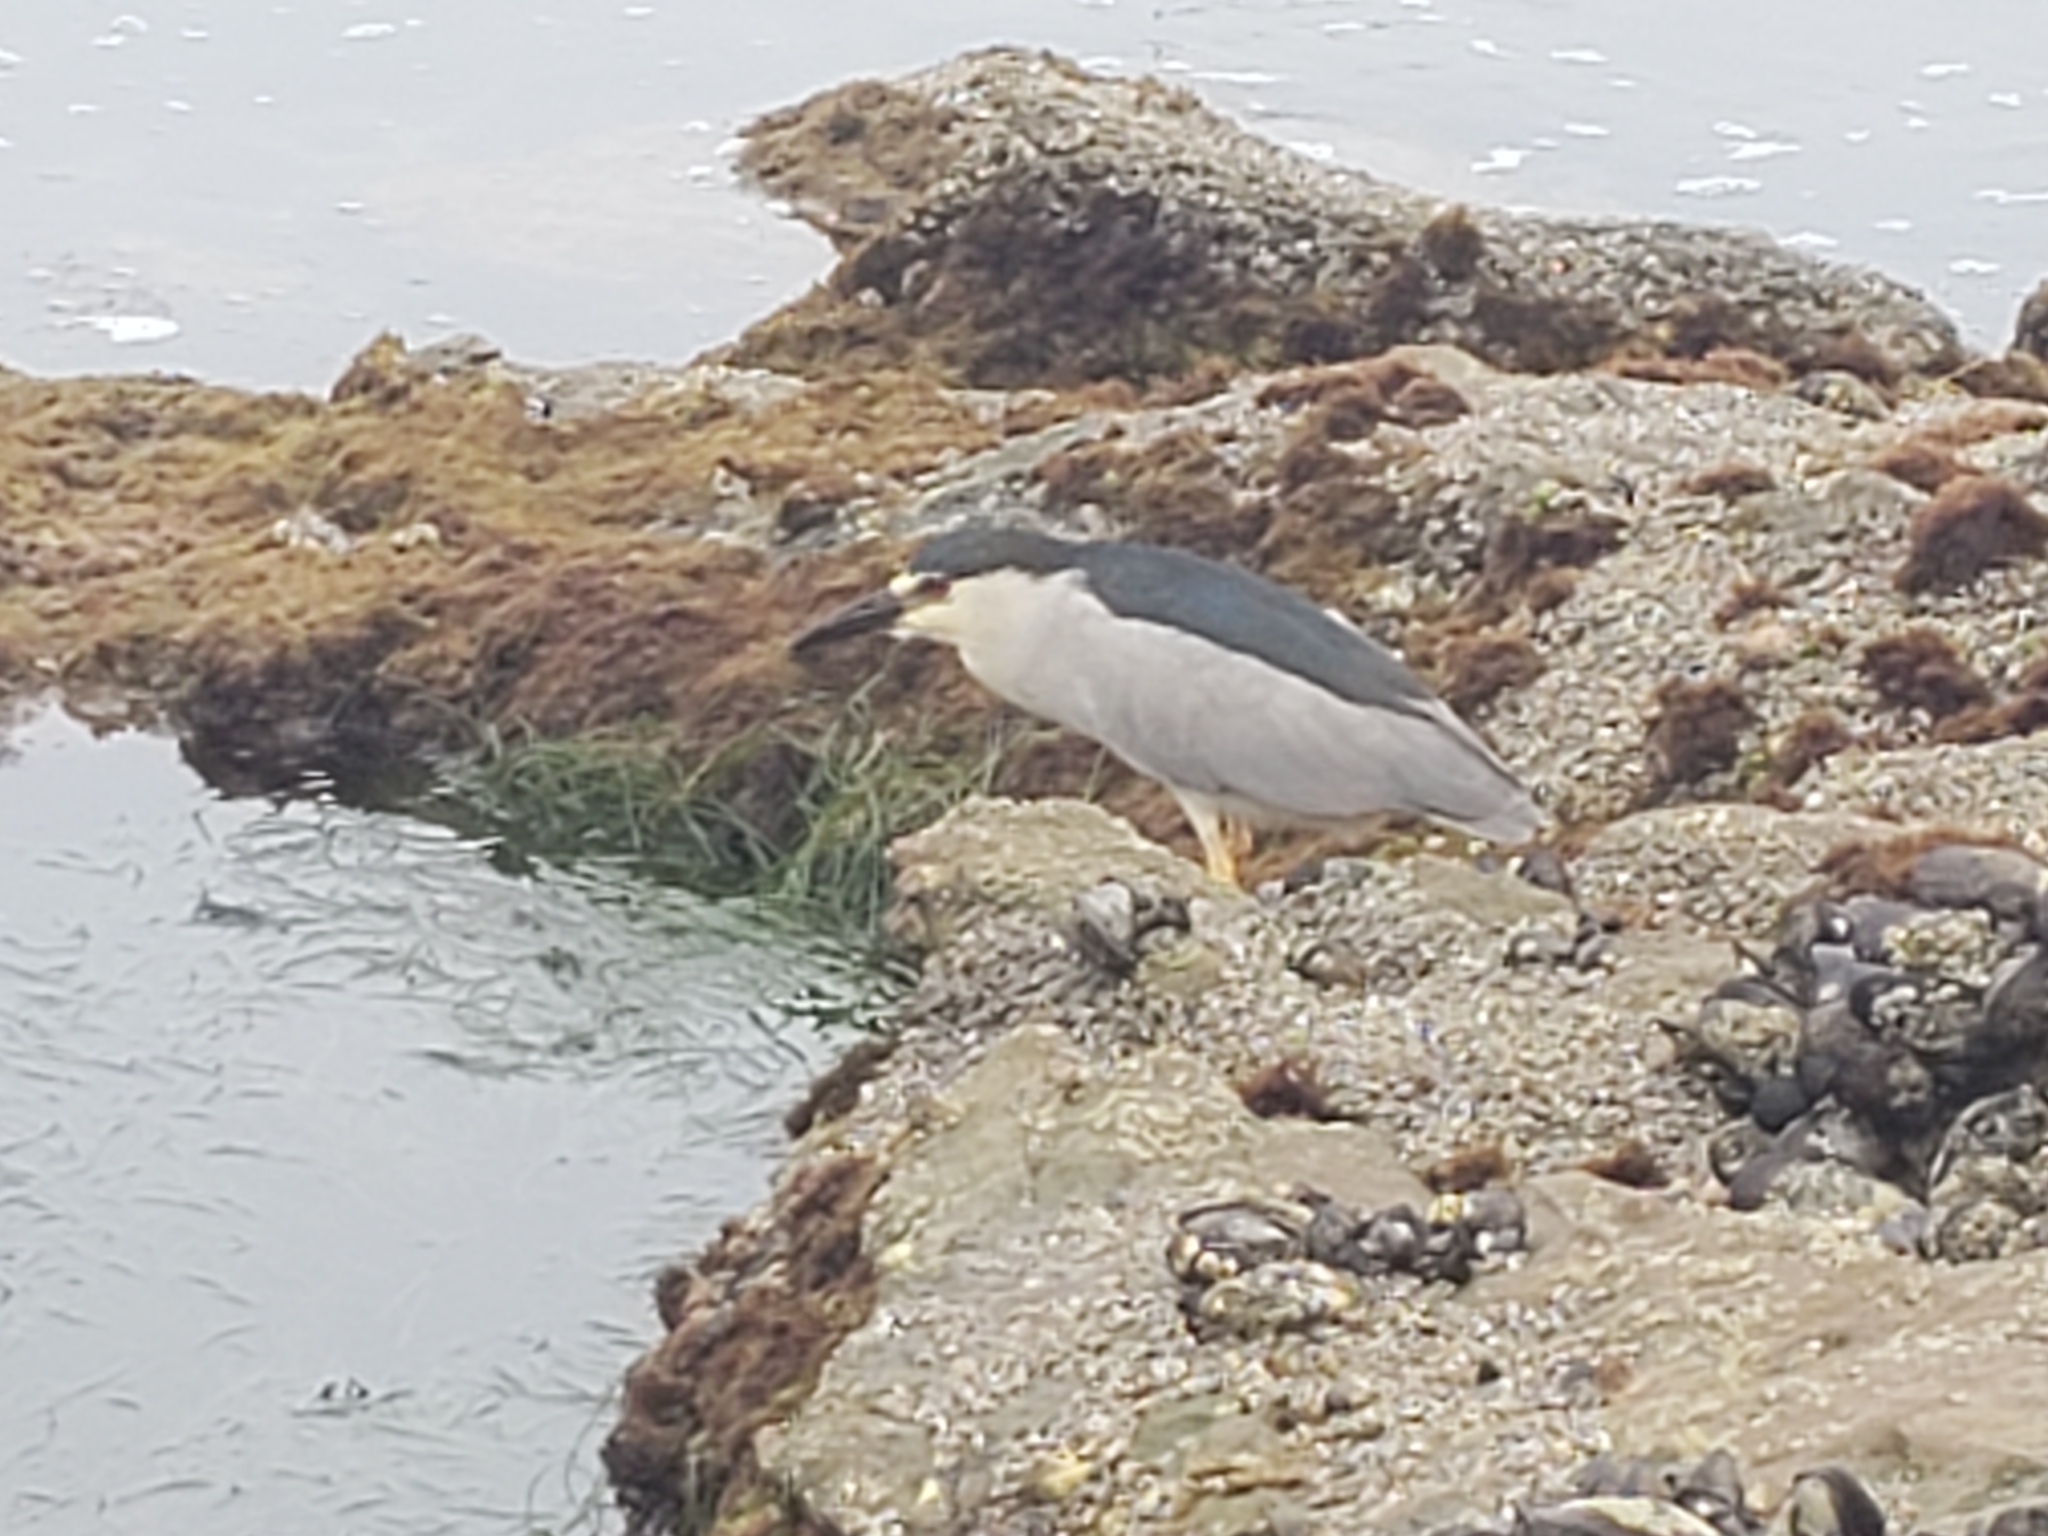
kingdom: Animalia
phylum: Chordata
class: Aves
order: Pelecaniformes
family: Ardeidae
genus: Nycticorax
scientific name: Nycticorax nycticorax
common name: Black-crowned night heron
